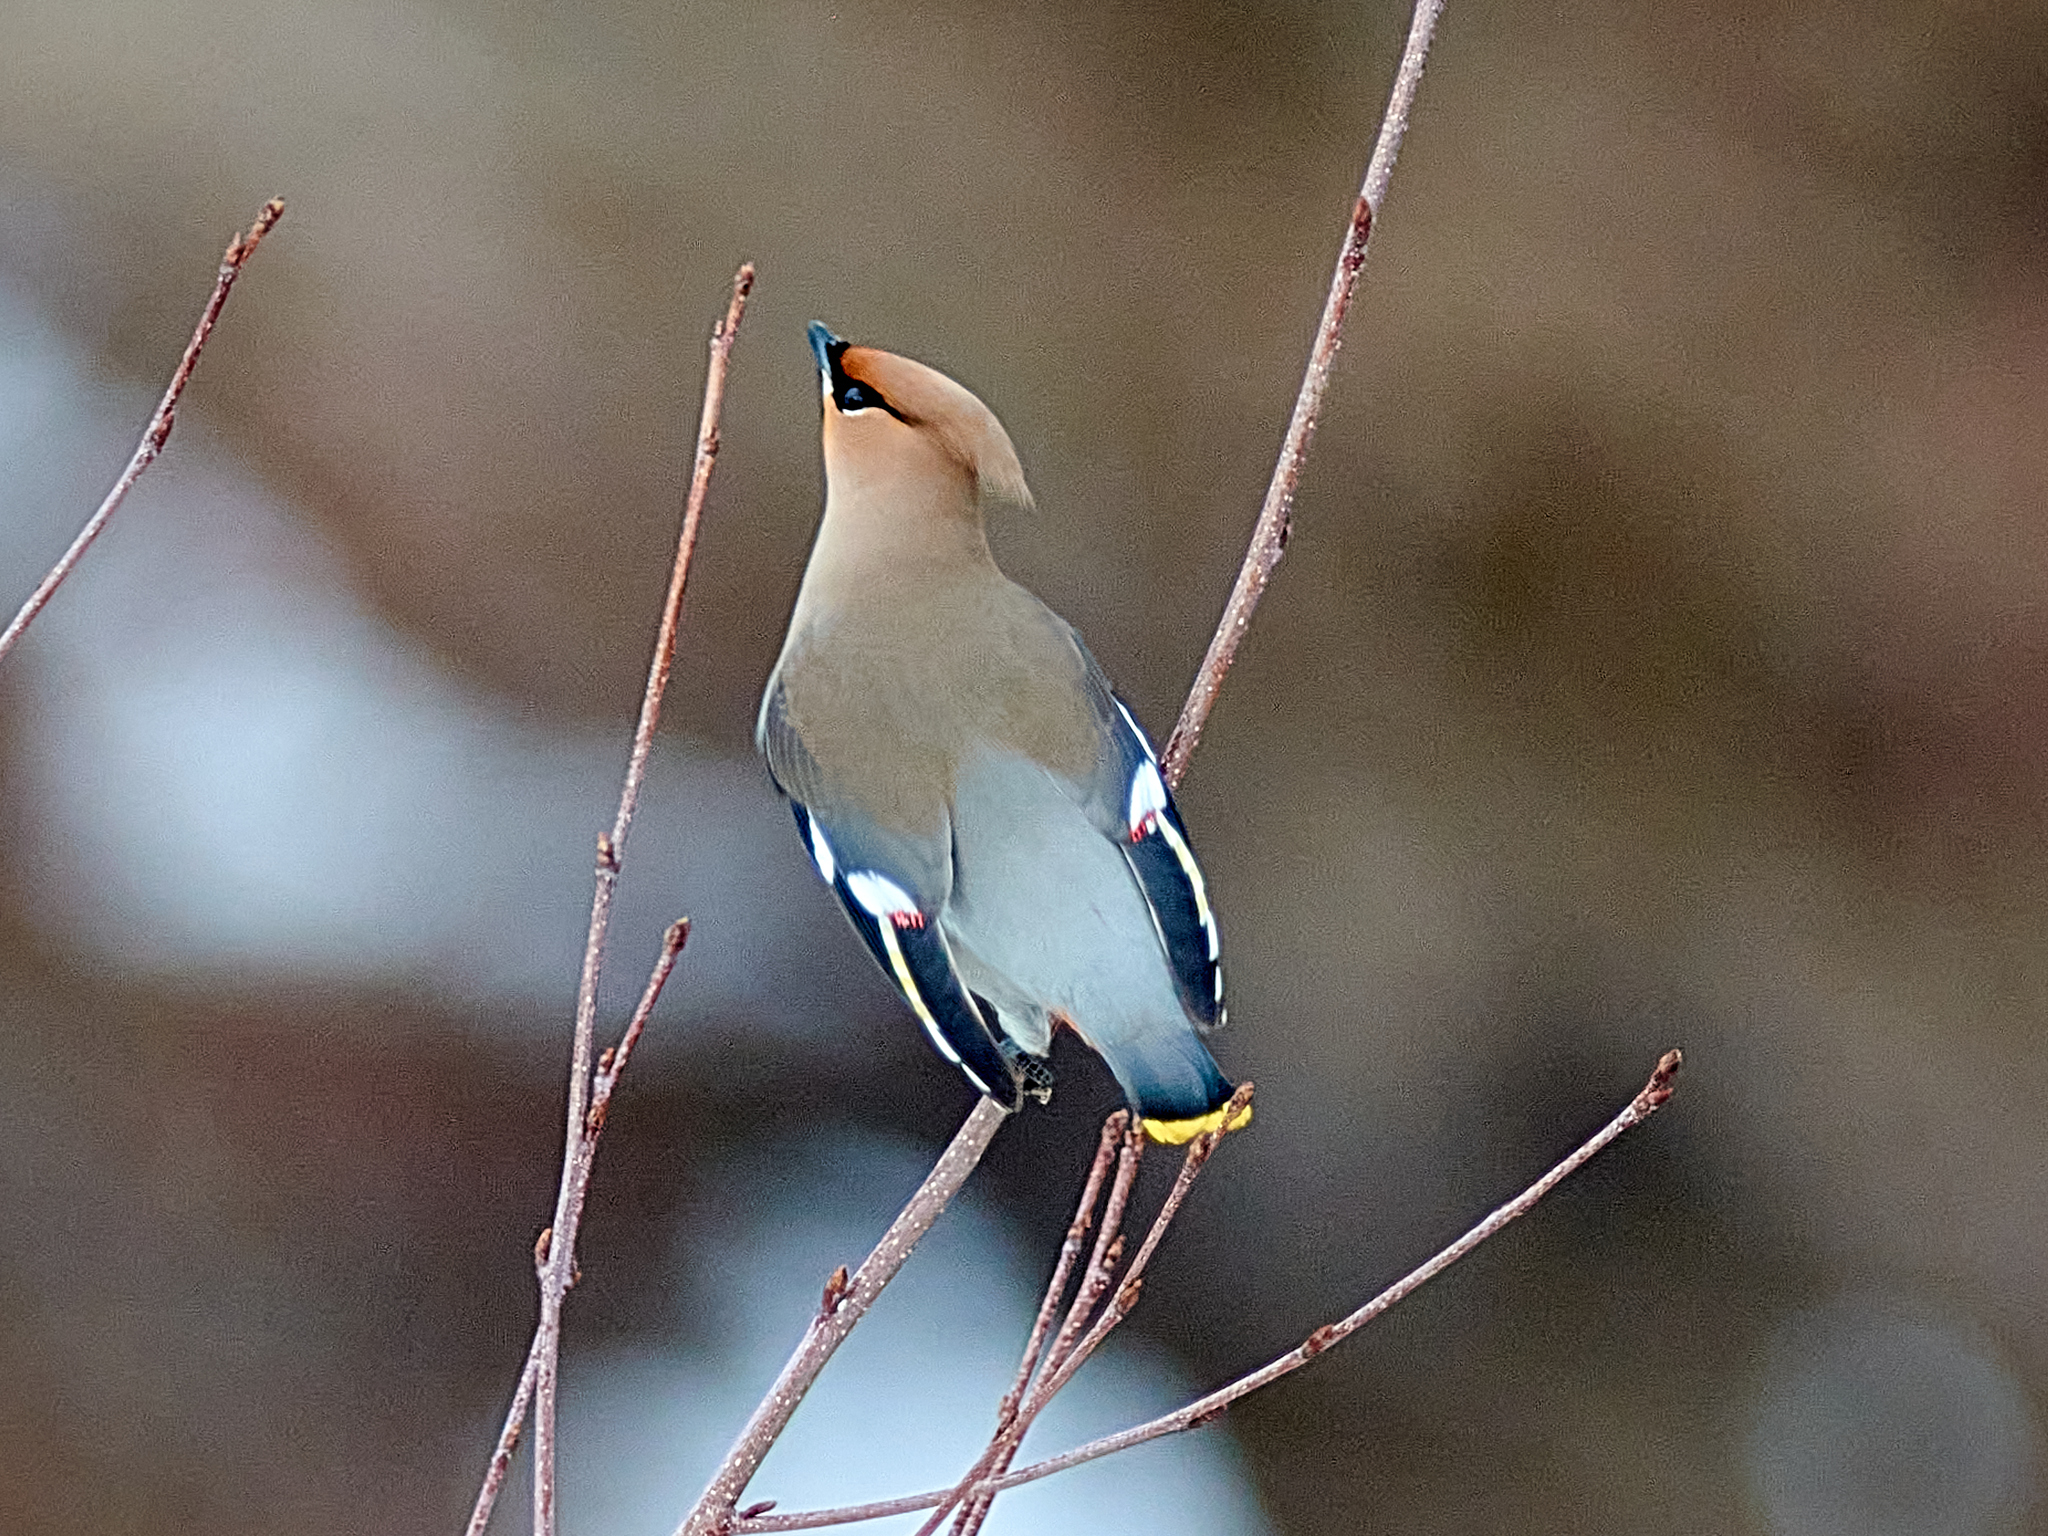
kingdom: Animalia
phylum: Chordata
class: Aves
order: Passeriformes
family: Bombycillidae
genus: Bombycilla
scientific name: Bombycilla garrulus
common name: Bohemian waxwing
